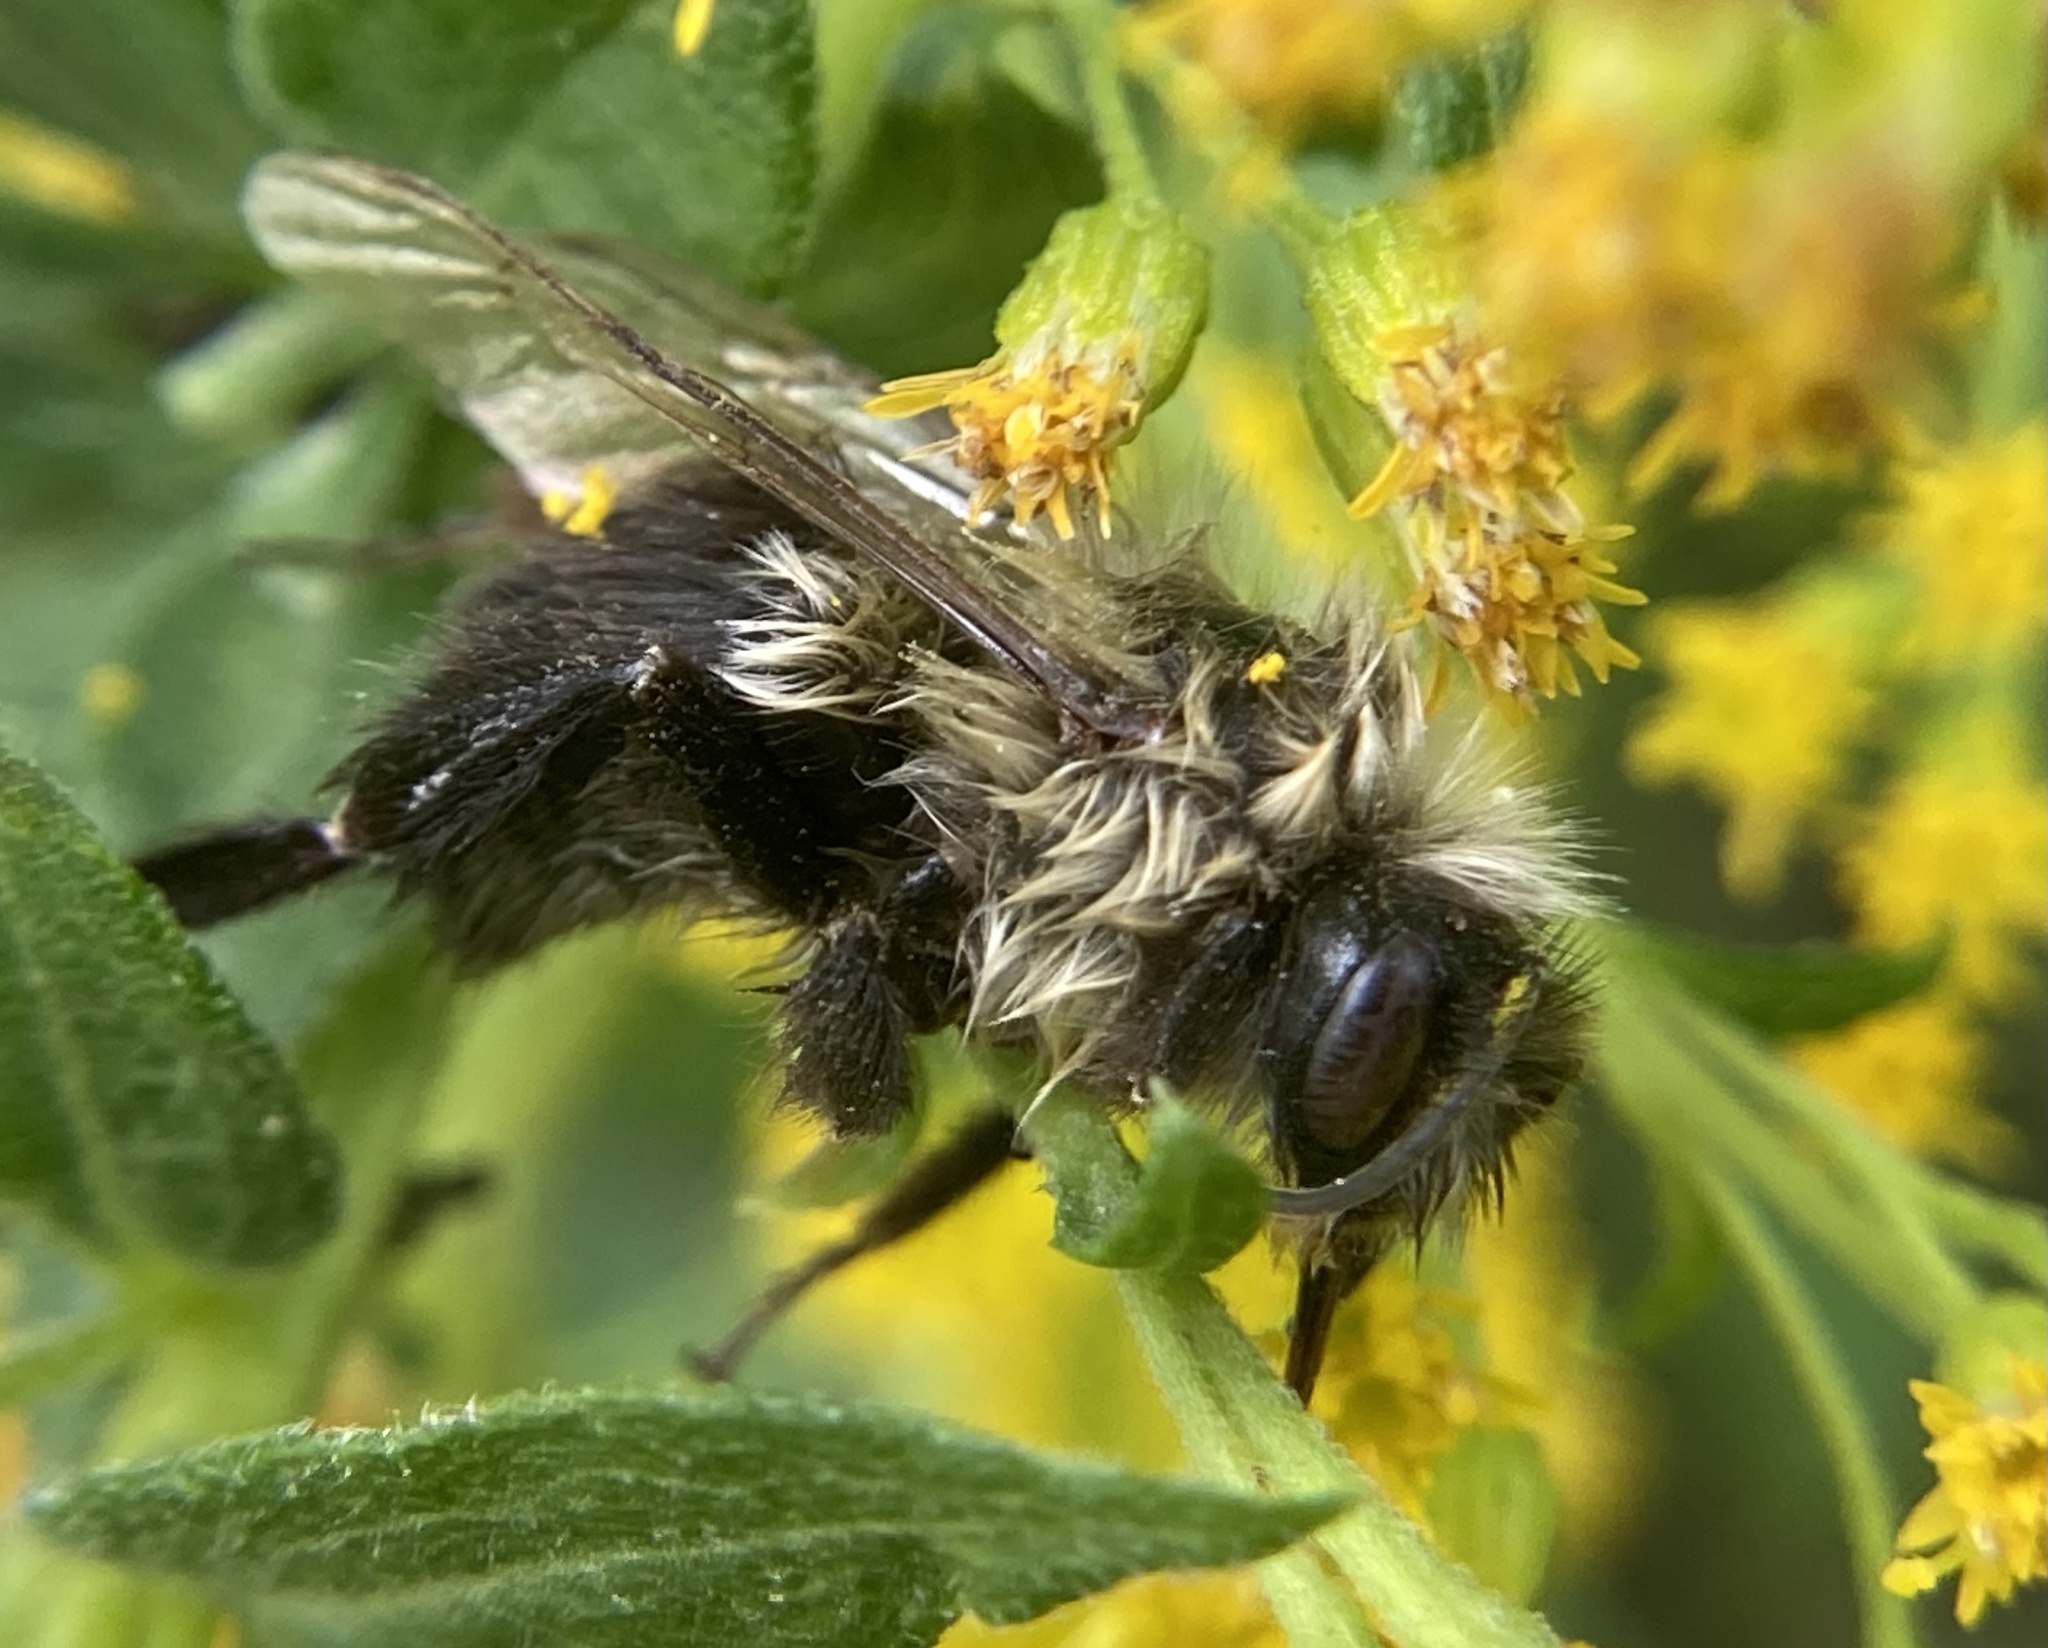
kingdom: Animalia
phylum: Arthropoda
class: Insecta
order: Hymenoptera
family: Apidae
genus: Bombus
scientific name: Bombus impatiens
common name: Common eastern bumble bee
